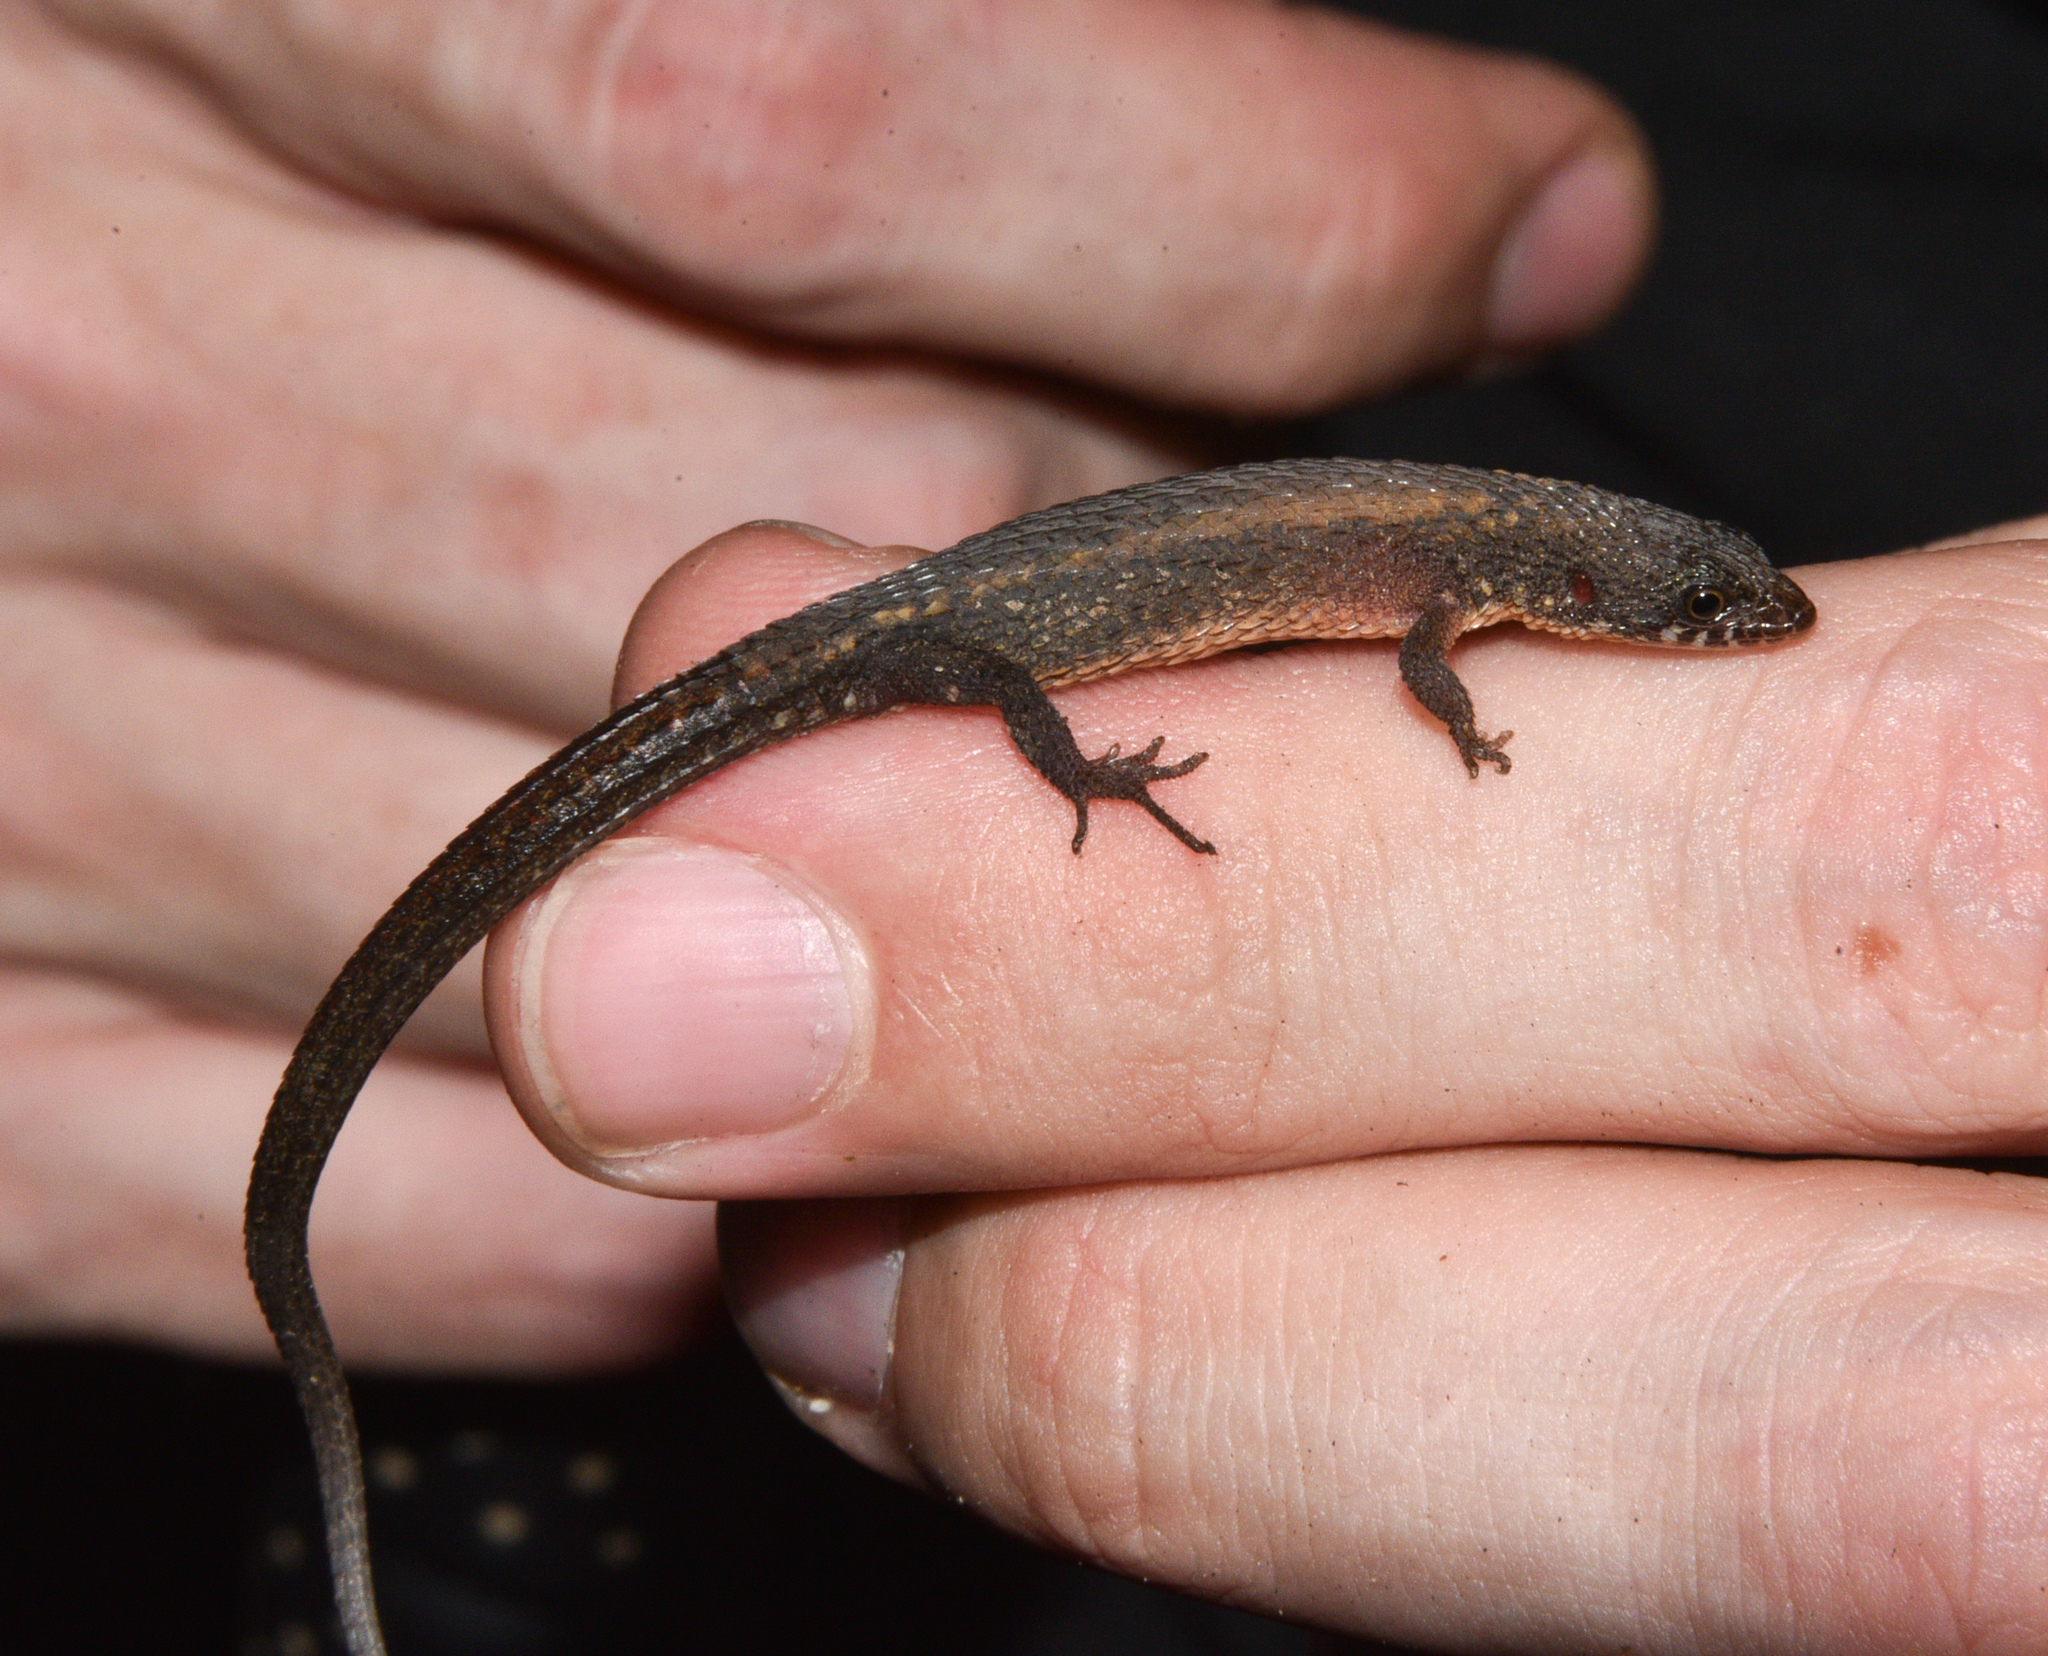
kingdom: Animalia
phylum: Chordata
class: Squamata
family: Gymnophthalmidae
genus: Loxopholis
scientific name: Loxopholis southi
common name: Northern spectacled lizard
